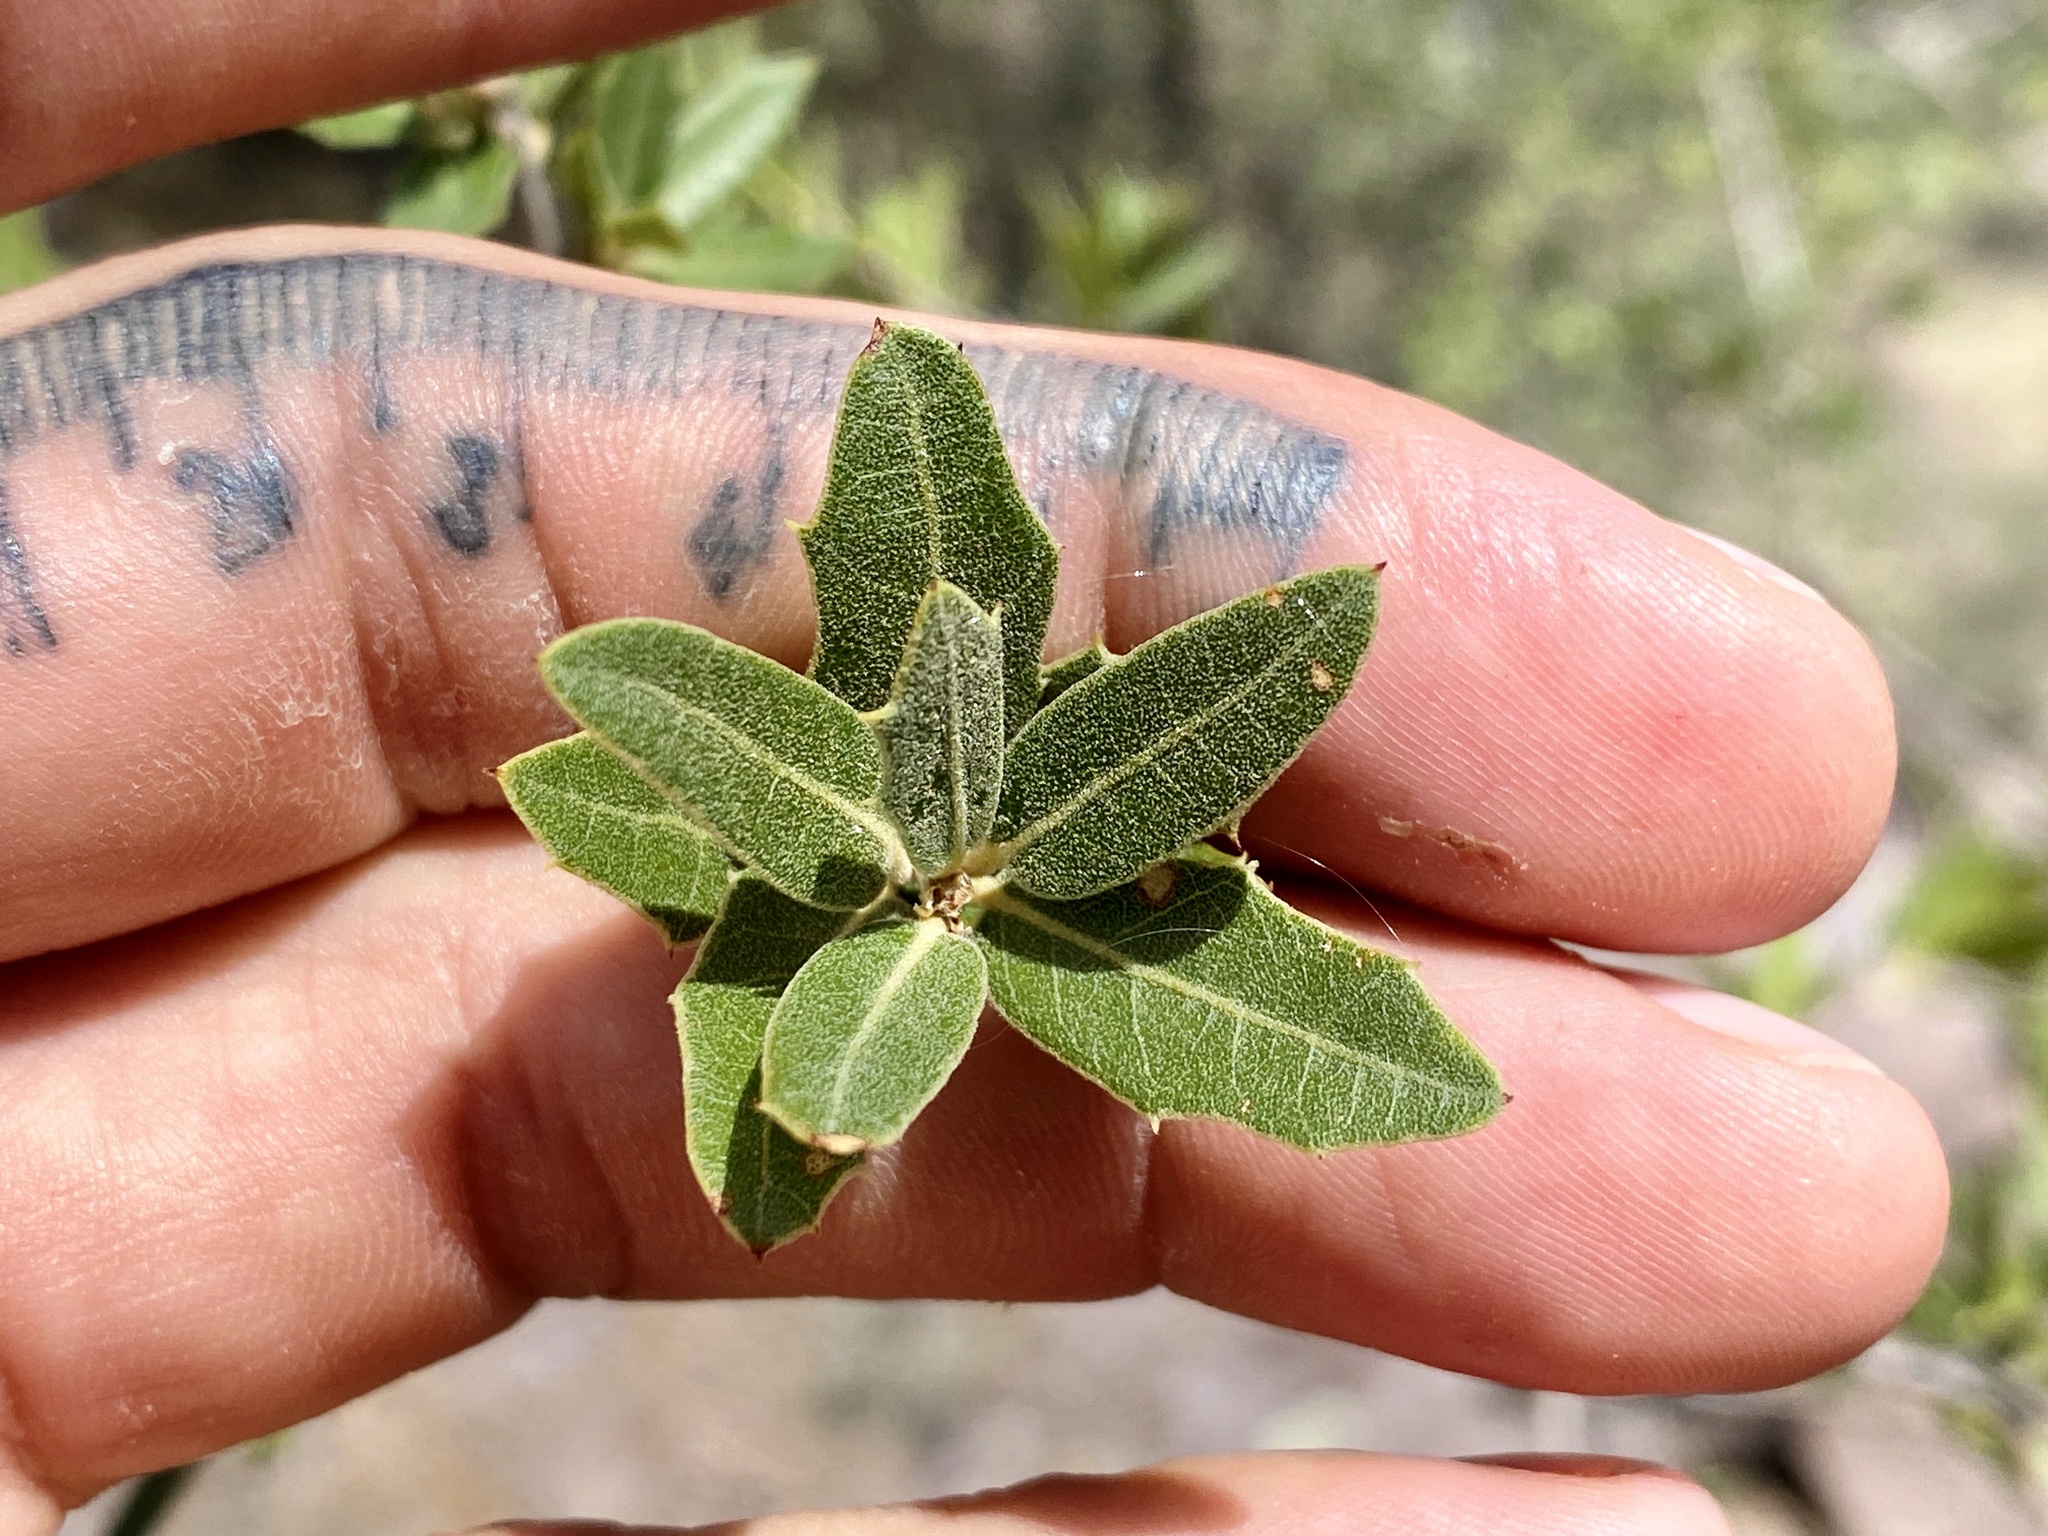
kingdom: Plantae
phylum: Tracheophyta
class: Magnoliopsida
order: Fagales
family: Fagaceae
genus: Quercus
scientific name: Quercus emoryi
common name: Emory oak
